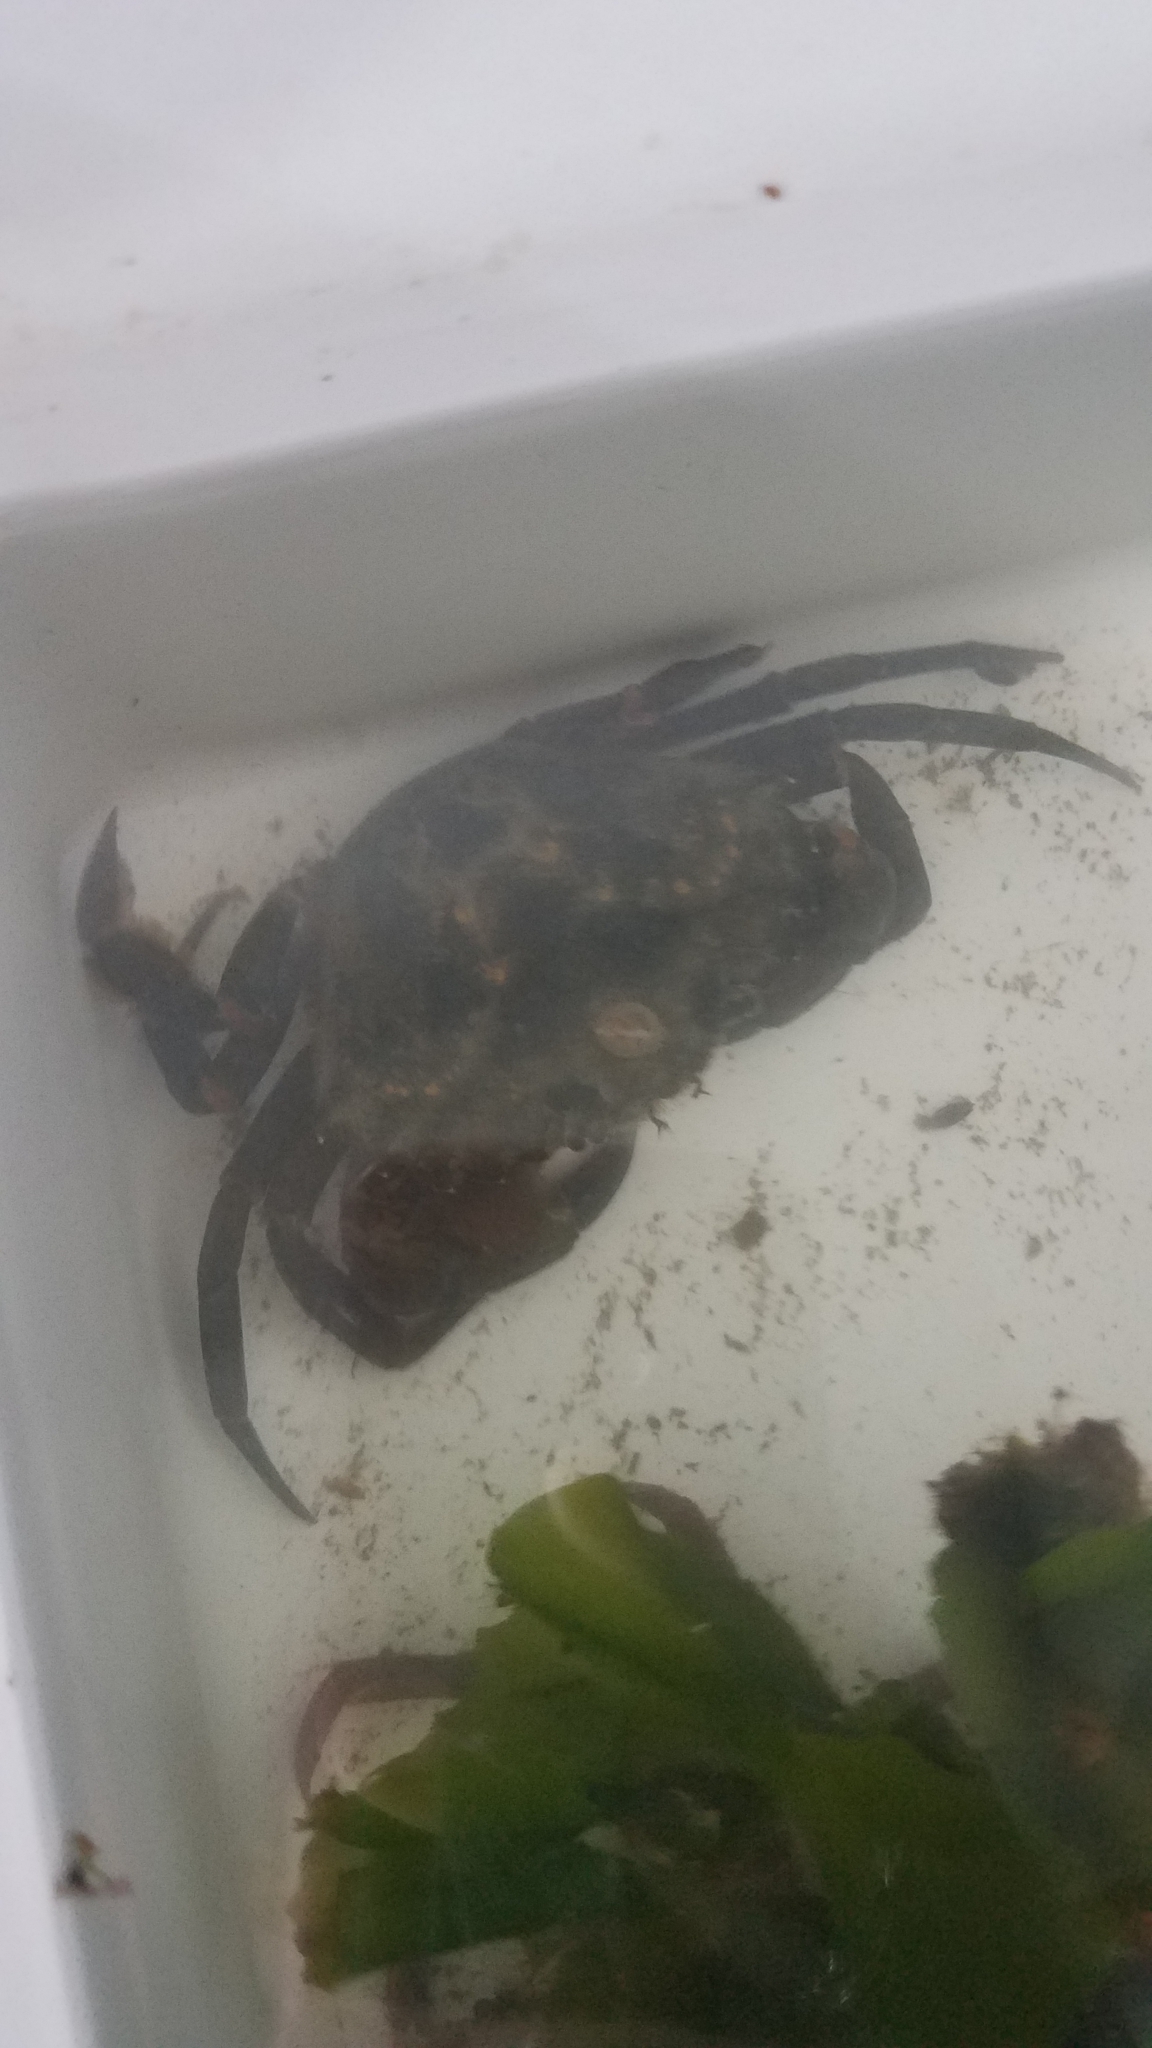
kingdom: Animalia
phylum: Arthropoda
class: Malacostraca
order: Decapoda
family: Carcinidae
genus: Carcinus
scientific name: Carcinus maenas
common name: European green crab
